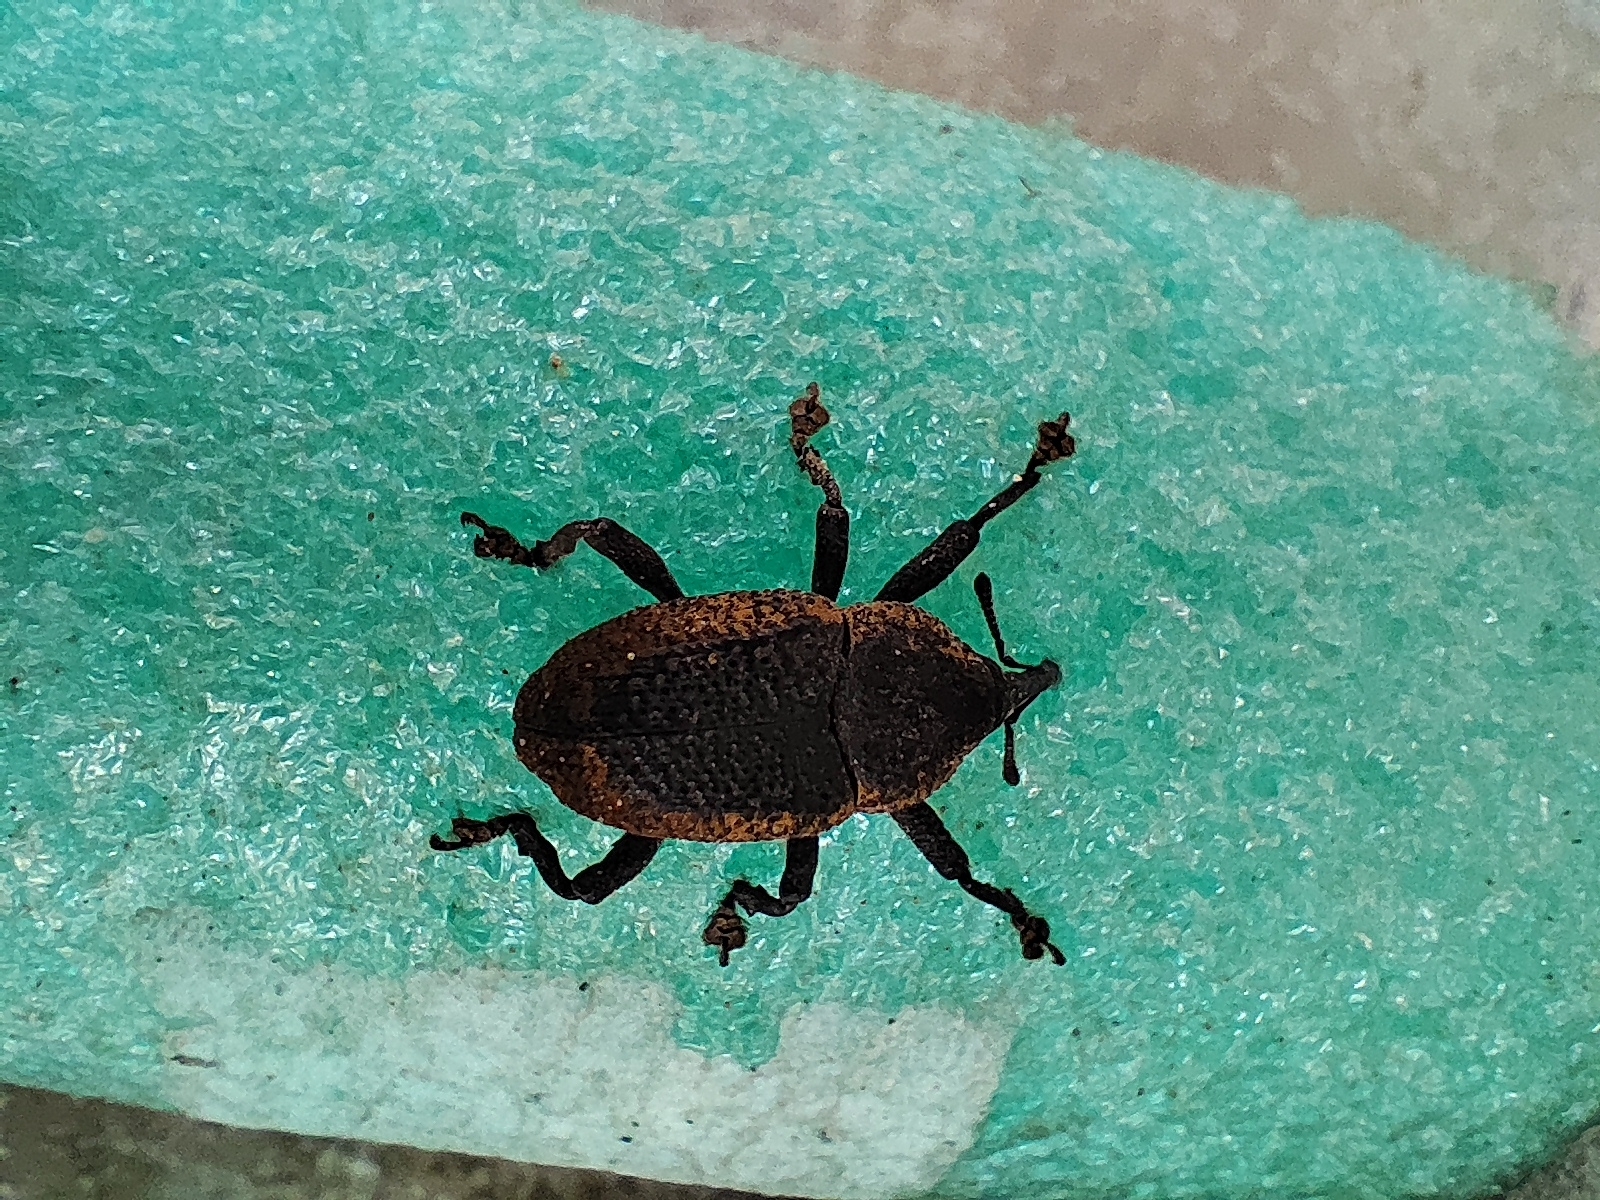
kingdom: Animalia
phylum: Arthropoda
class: Insecta
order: Coleoptera
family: Curculionidae
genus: Homalinotus
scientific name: Homalinotus deplanatus
